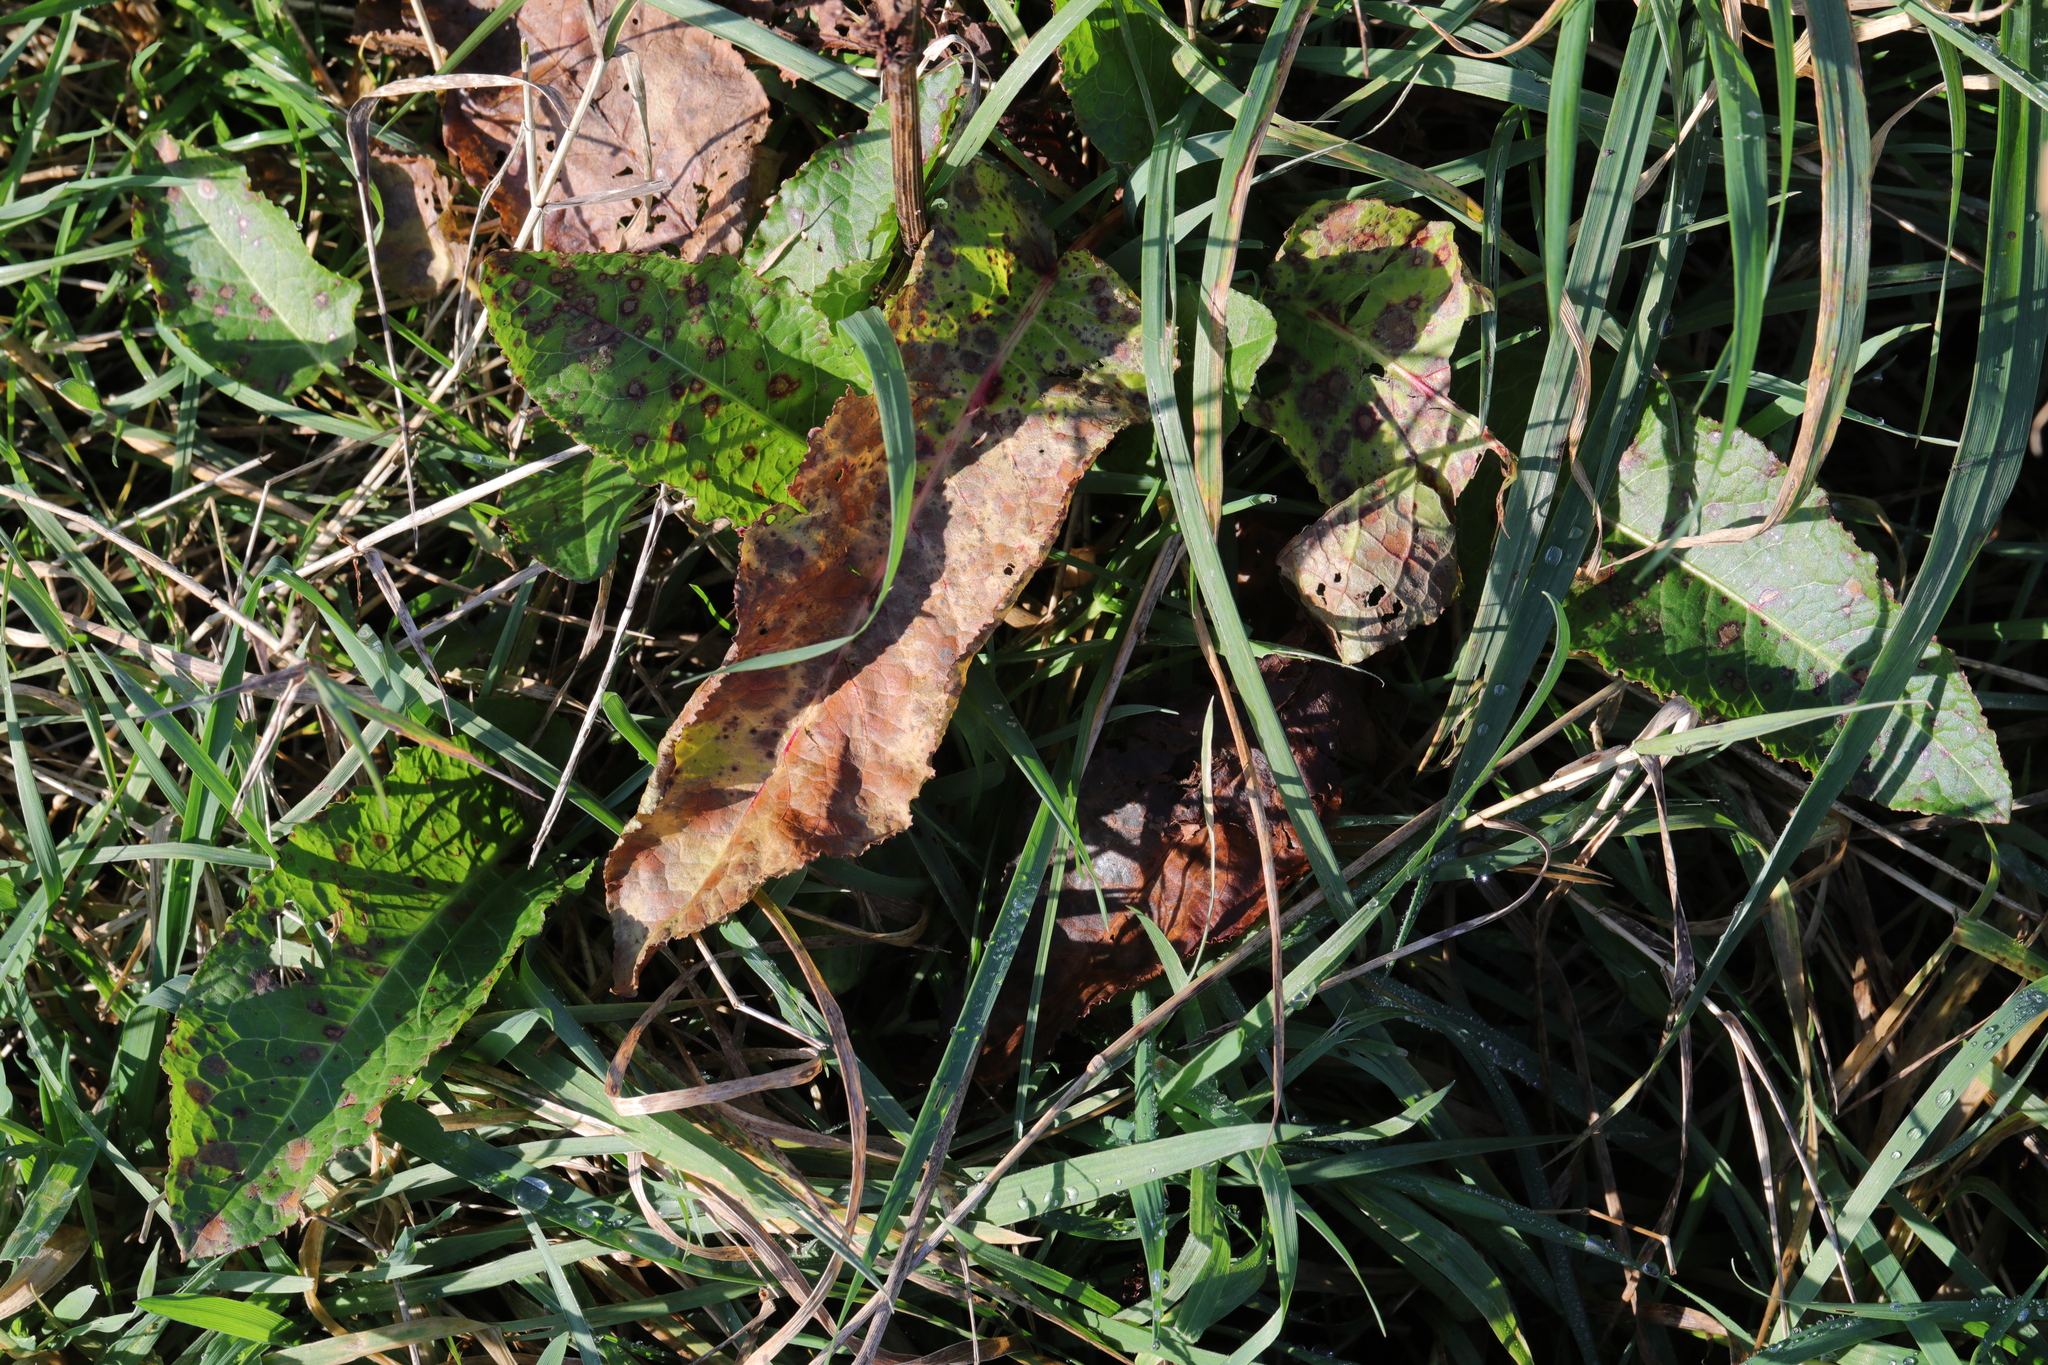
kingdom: Plantae
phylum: Tracheophyta
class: Magnoliopsida
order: Caryophyllales
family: Polygonaceae
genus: Rumex
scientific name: Rumex obtusifolius
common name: Bitter dock
